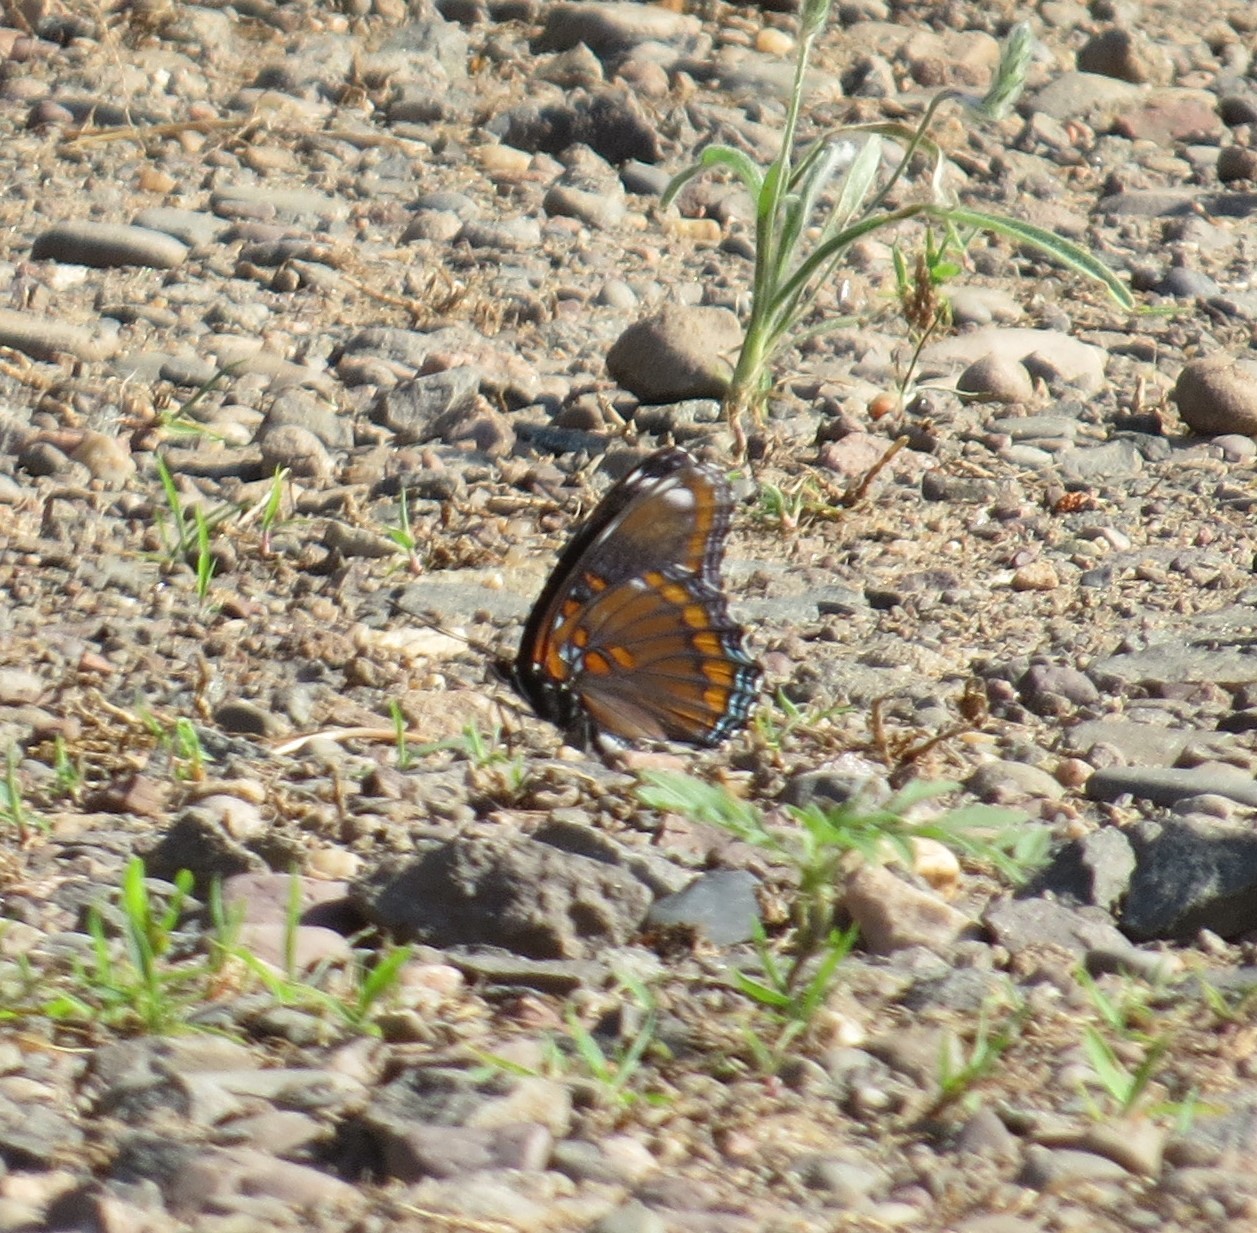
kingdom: Animalia
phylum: Arthropoda
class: Insecta
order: Lepidoptera
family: Nymphalidae
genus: Limenitis
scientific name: Limenitis astyanax
